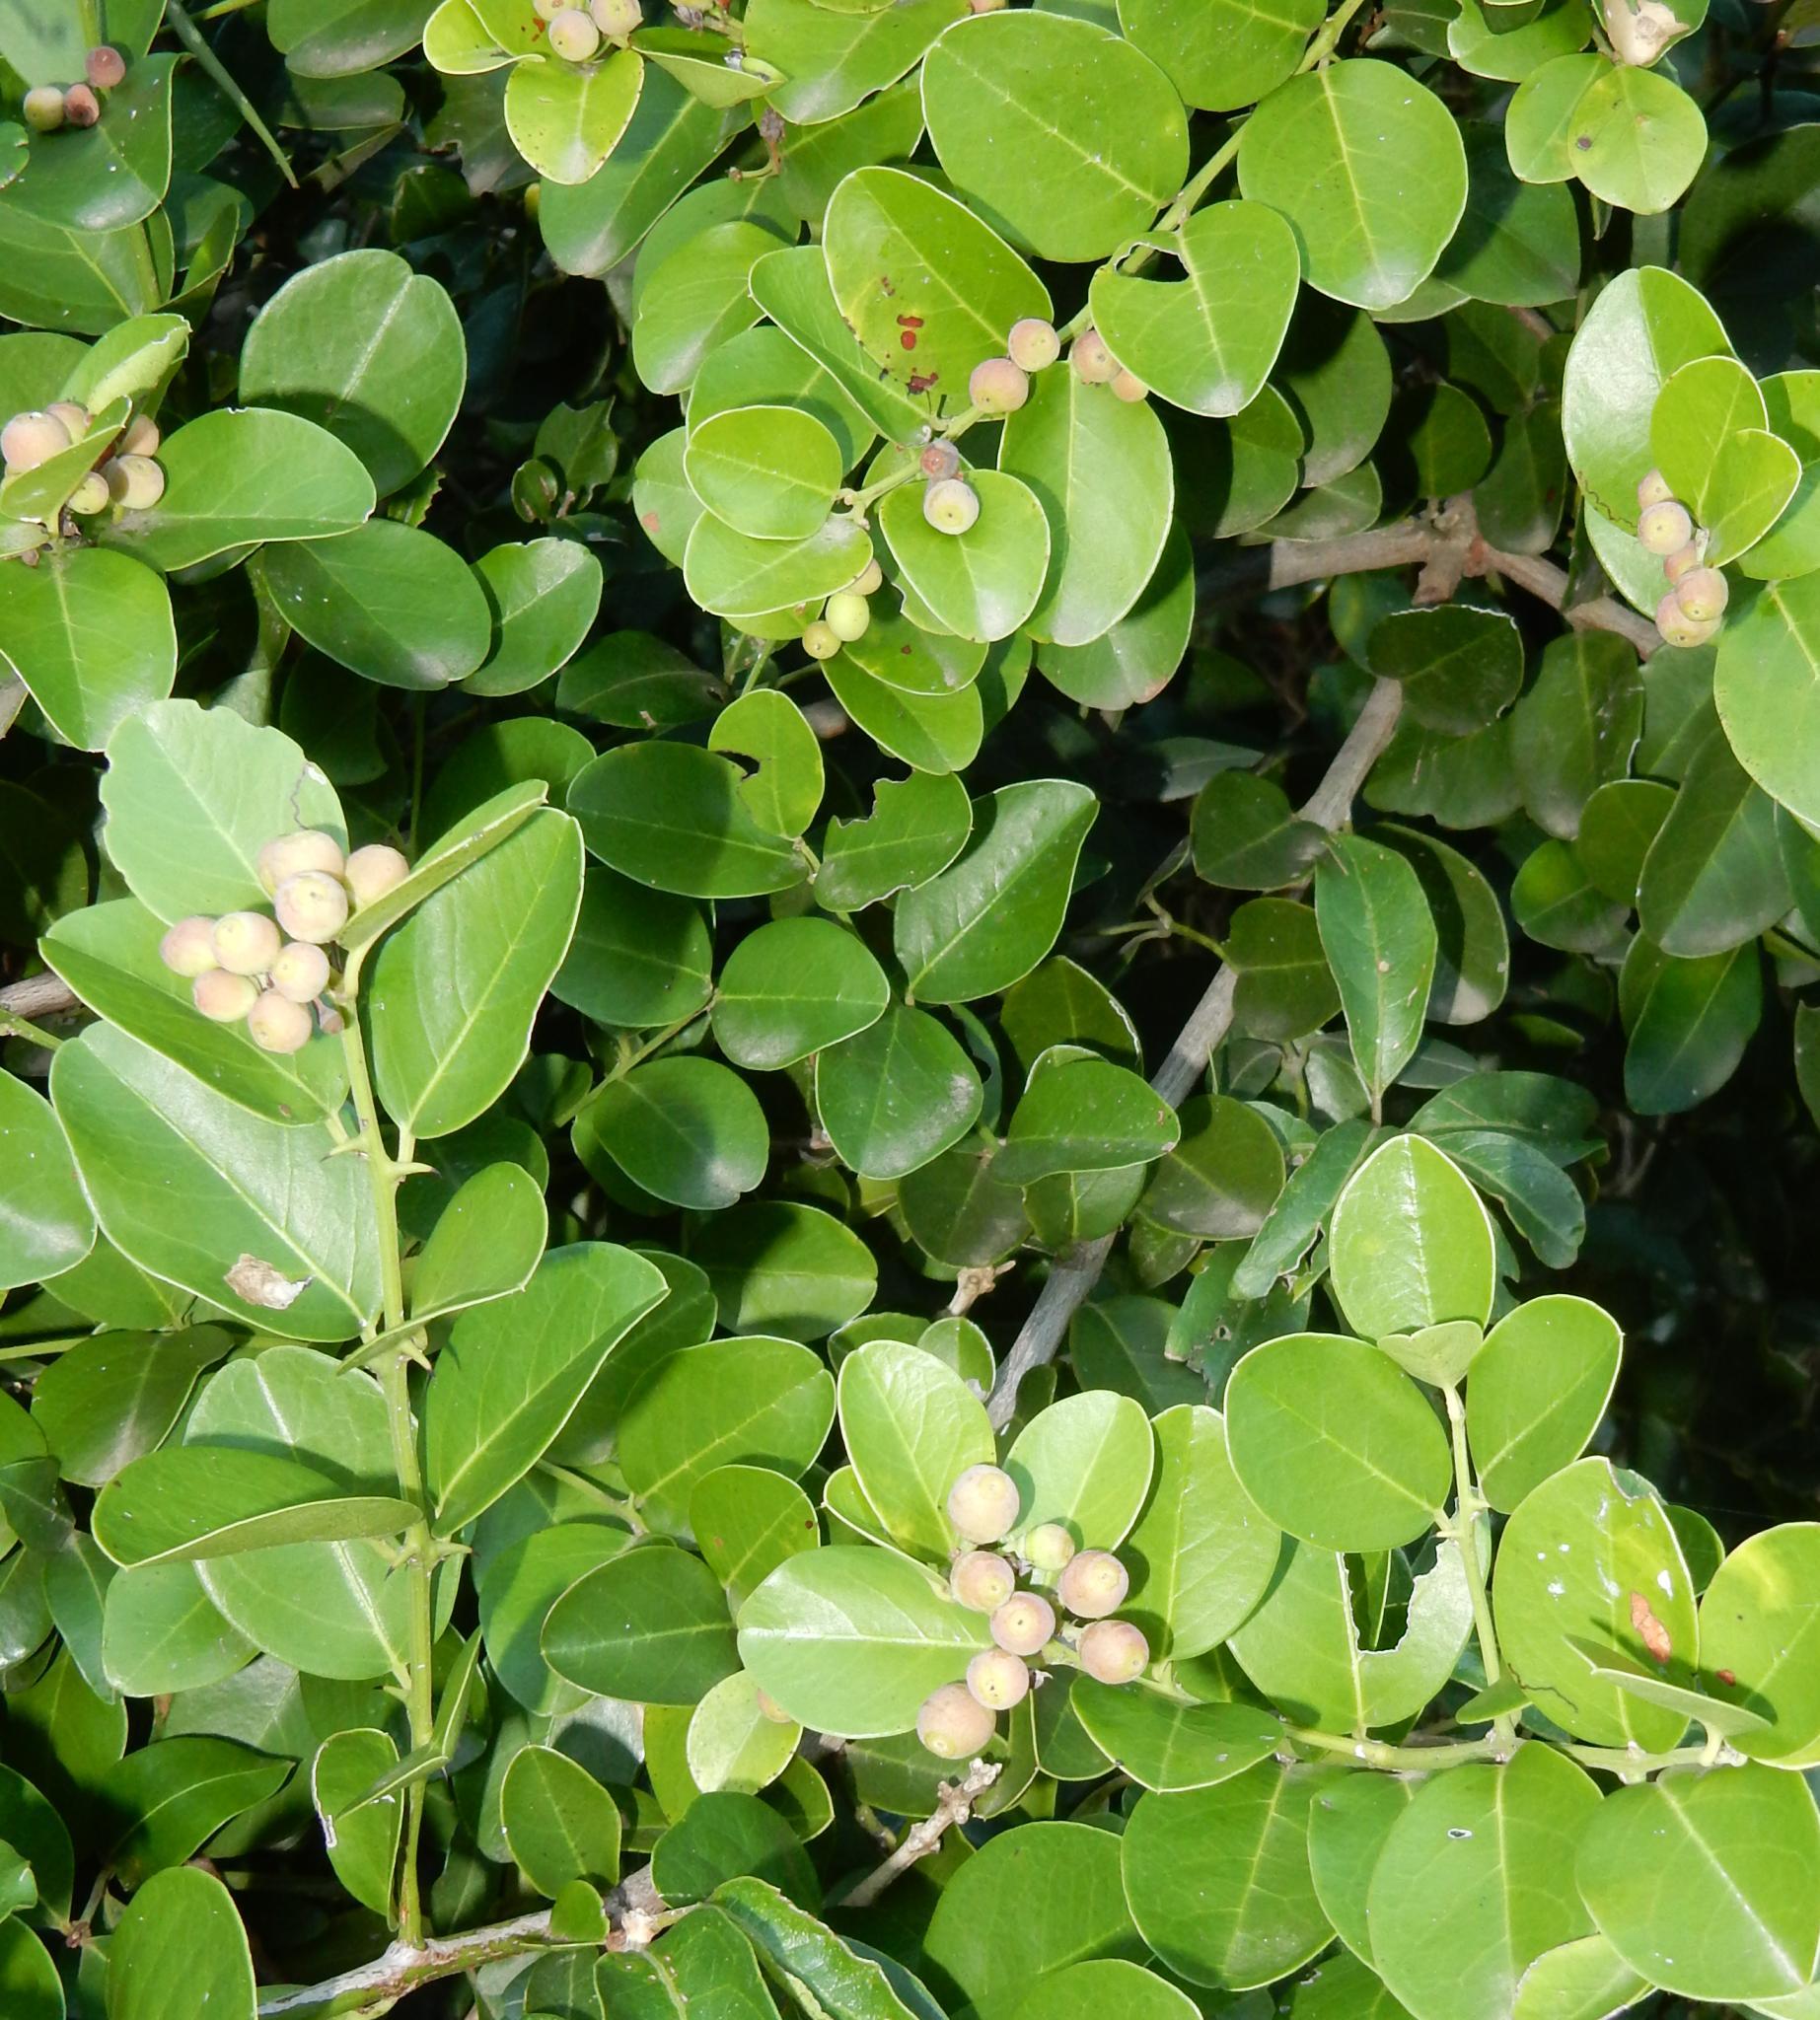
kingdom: Plantae
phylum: Tracheophyta
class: Magnoliopsida
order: Rosales
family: Rhamnaceae
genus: Scutia
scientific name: Scutia myrtina
